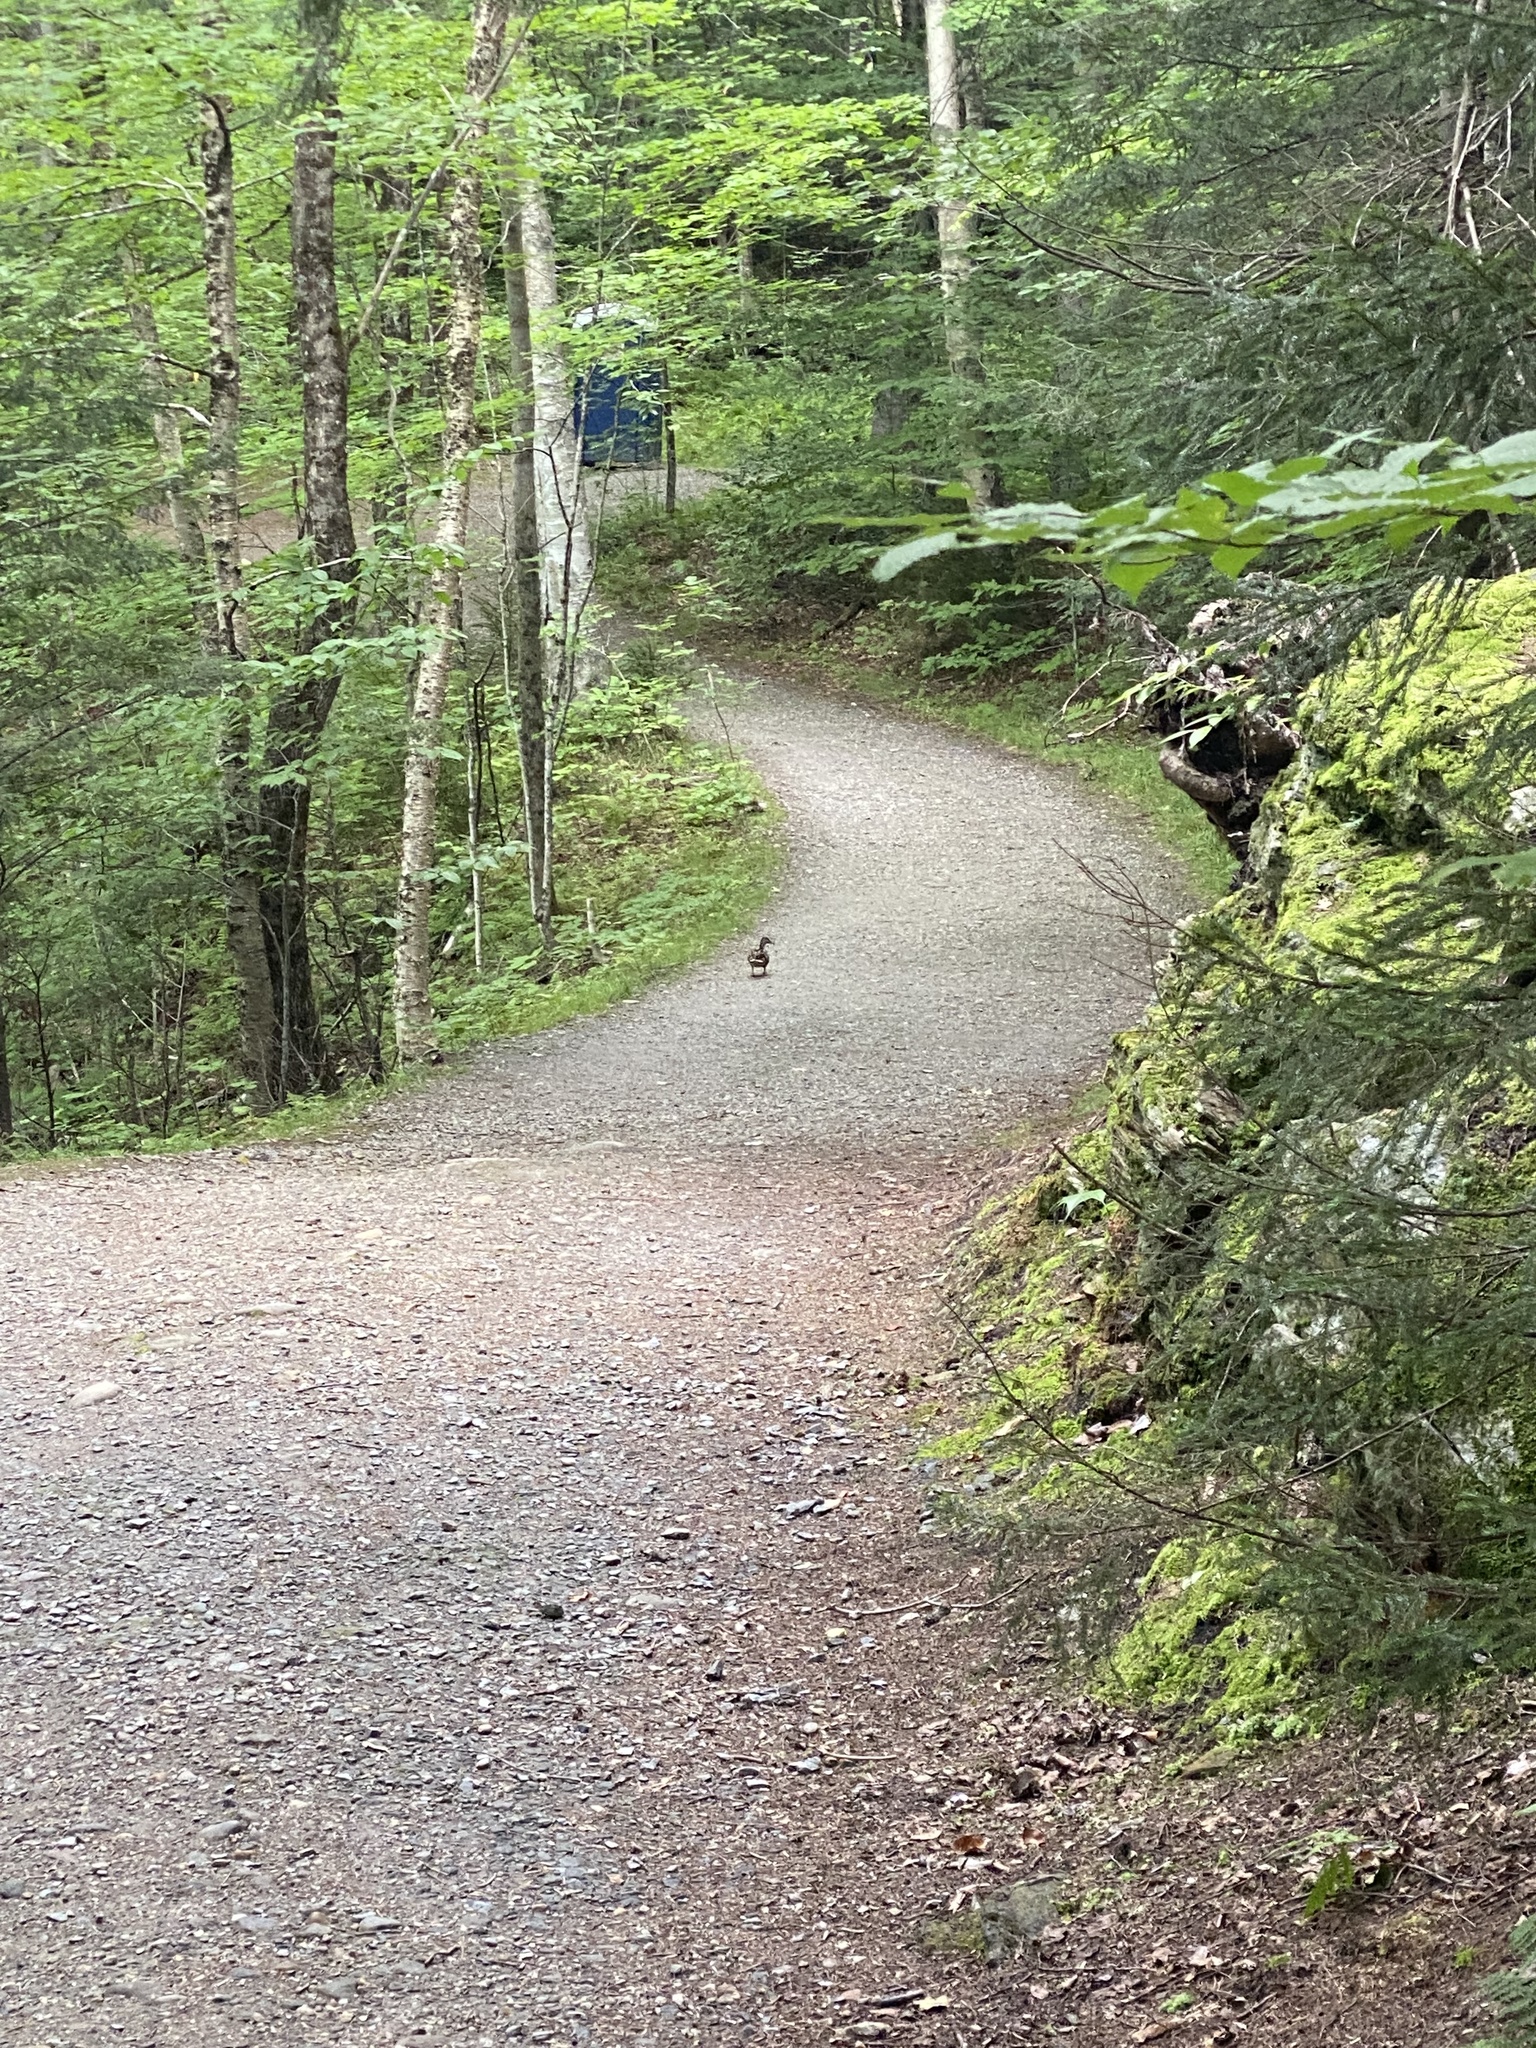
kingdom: Animalia
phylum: Chordata
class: Aves
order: Anseriformes
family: Anatidae
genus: Anas
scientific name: Anas platyrhynchos
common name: Mallard
